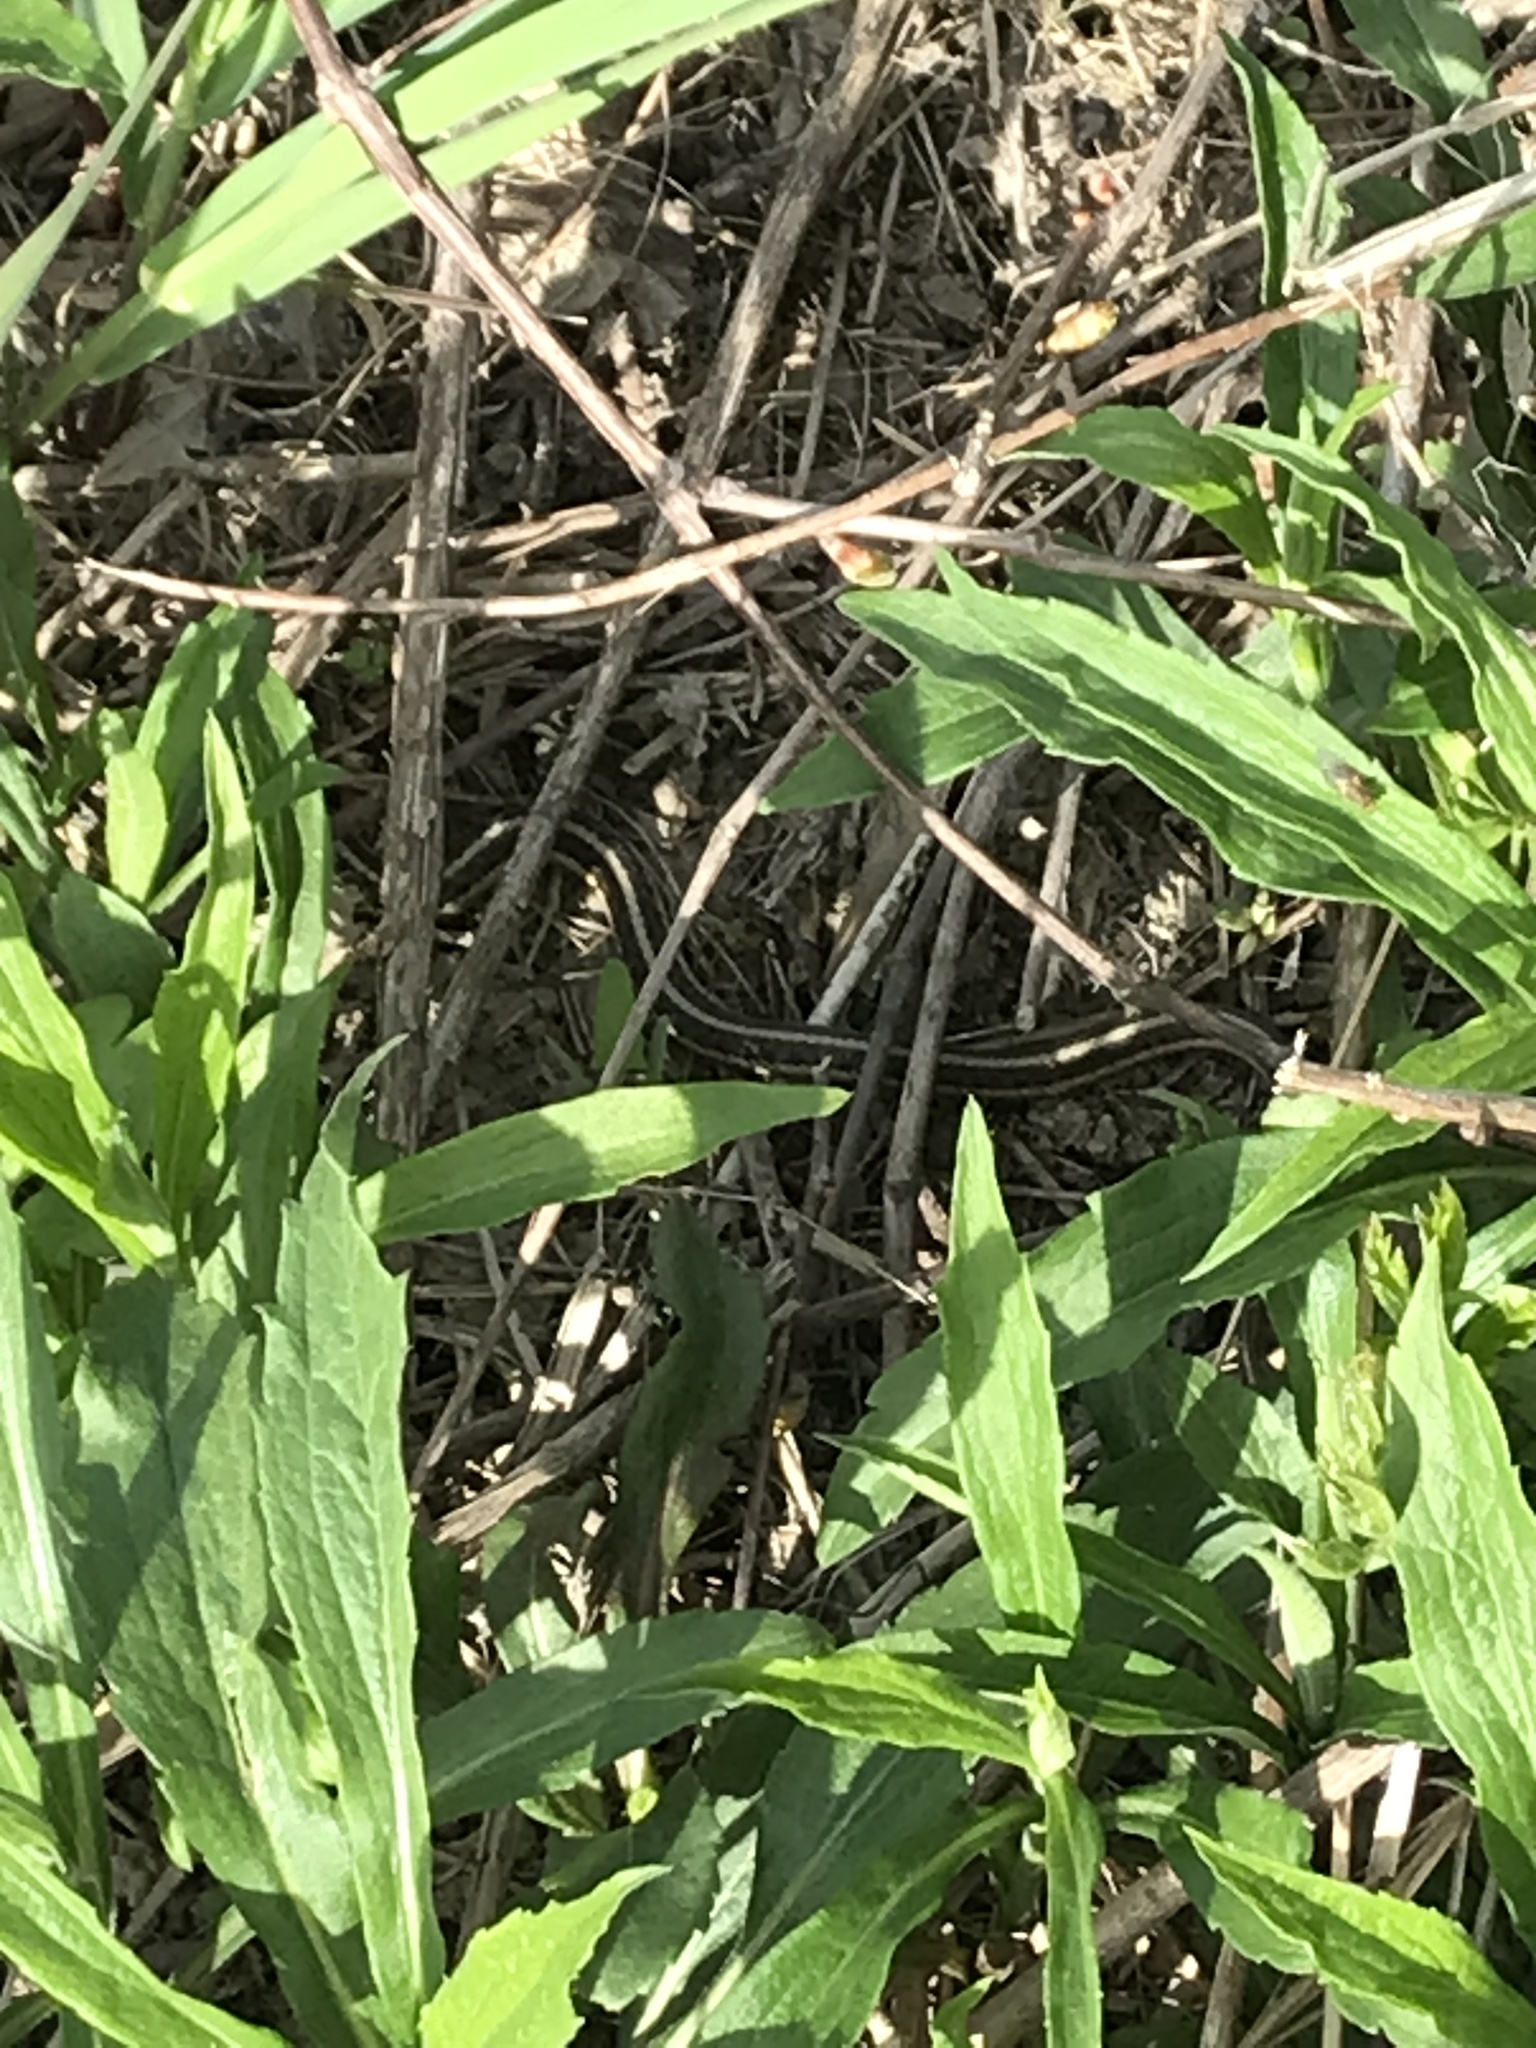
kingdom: Animalia
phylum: Chordata
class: Squamata
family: Colubridae
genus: Thamnophis
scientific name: Thamnophis sirtalis
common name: Common garter snake
